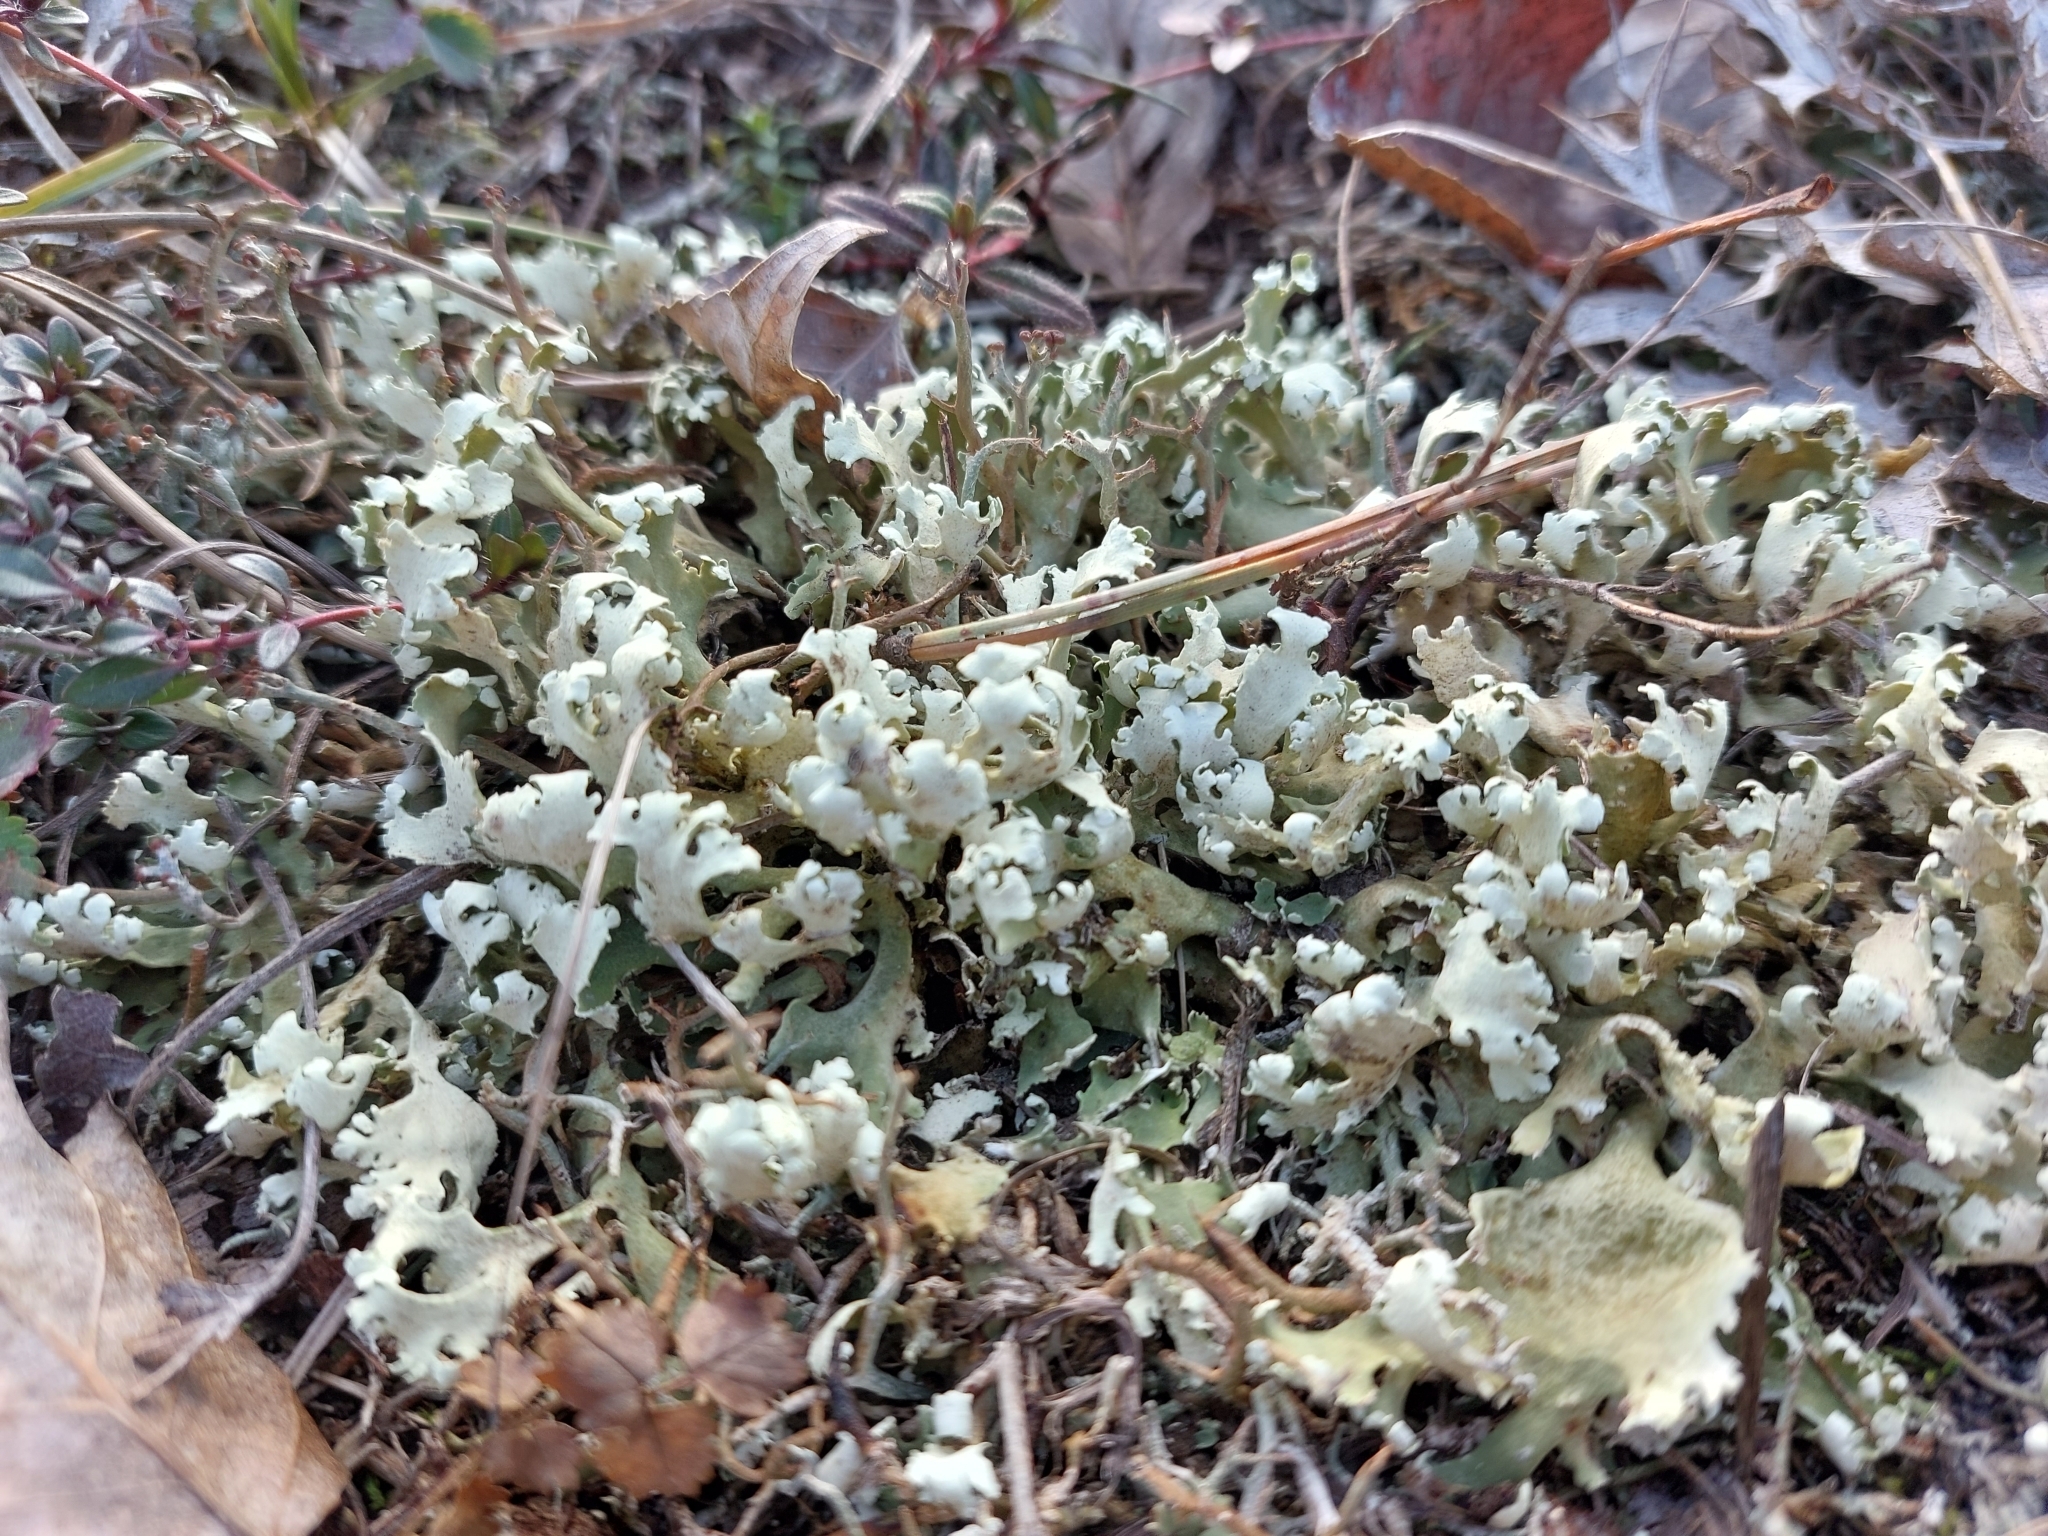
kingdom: Fungi
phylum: Ascomycota
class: Lecanoromycetes
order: Lecanorales
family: Cladoniaceae
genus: Cladonia
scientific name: Cladonia foliacea
